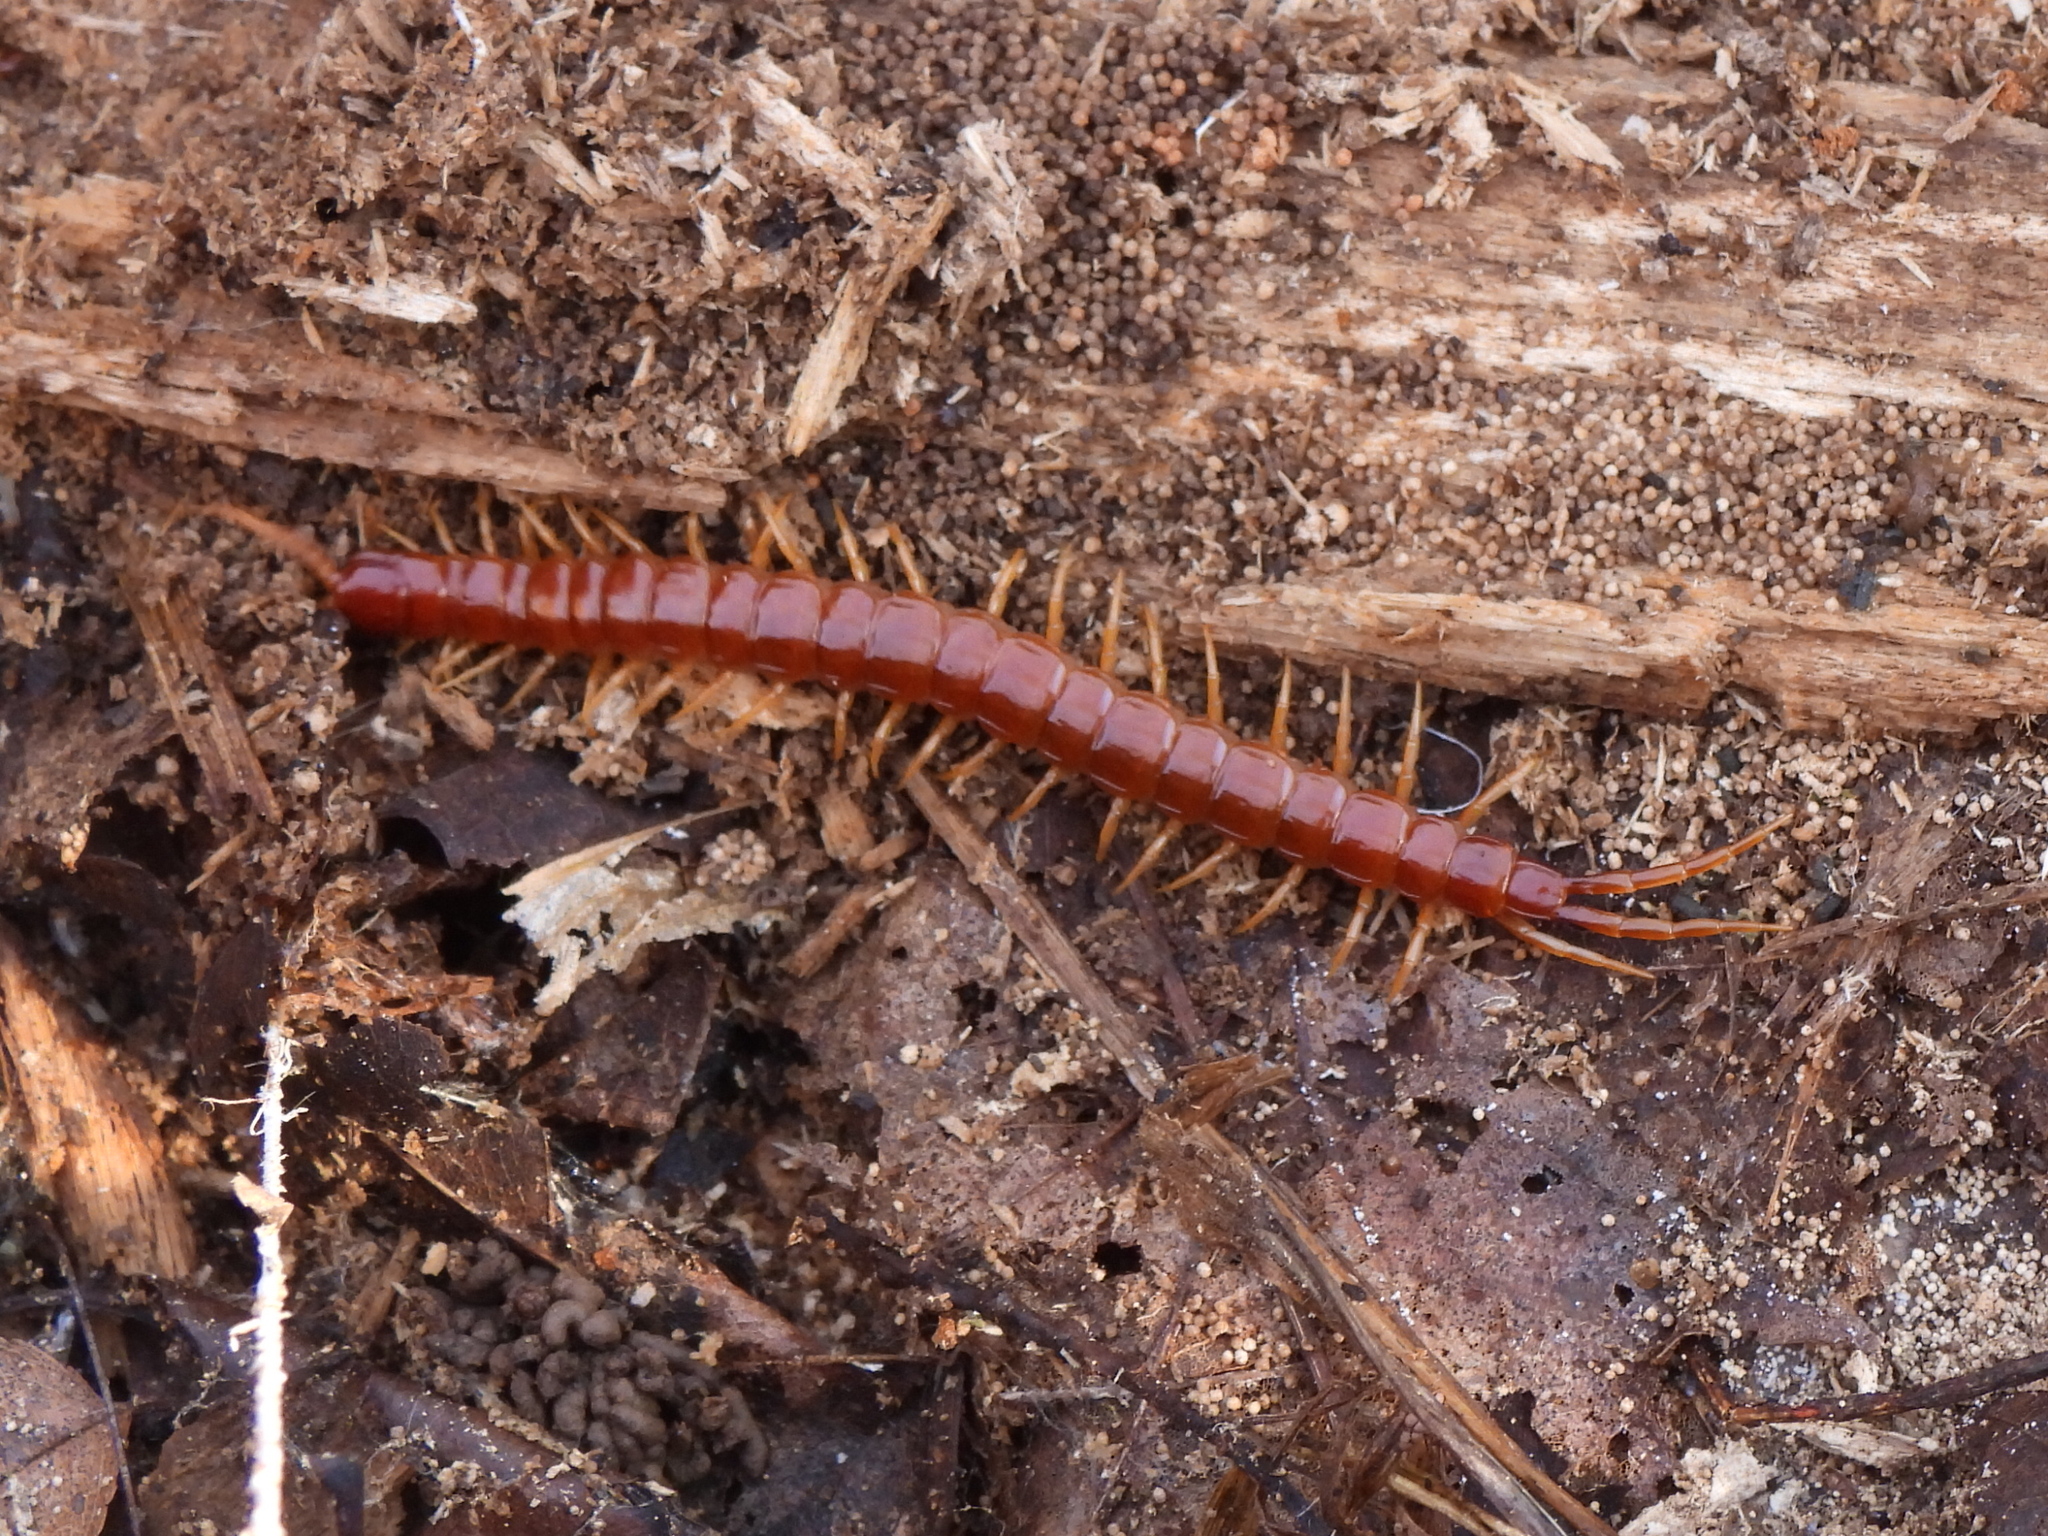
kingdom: Animalia
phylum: Arthropoda
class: Chilopoda
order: Scolopendromorpha
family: Scolopocryptopidae
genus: Scolopocryptops
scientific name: Scolopocryptops sexspinosus
